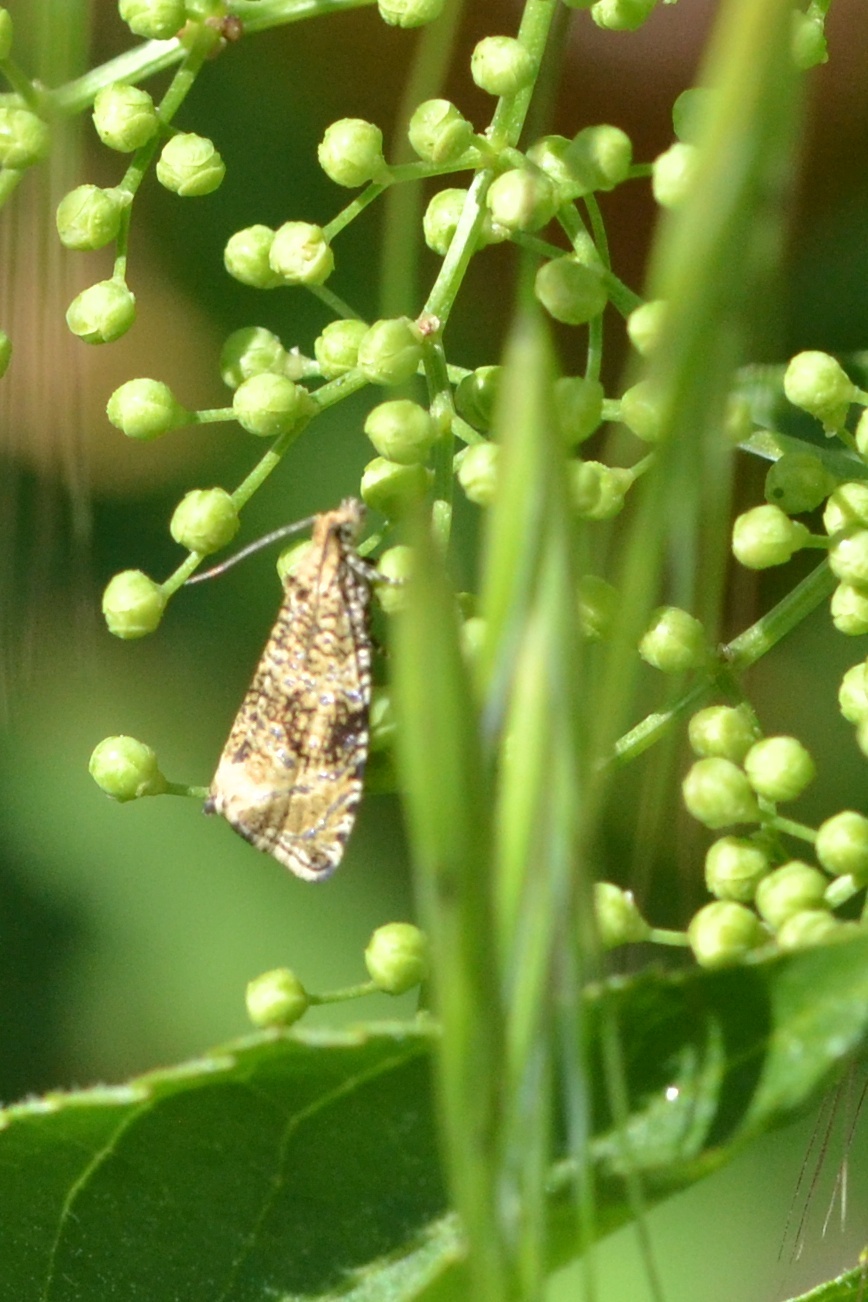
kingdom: Animalia
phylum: Arthropoda
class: Insecta
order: Lepidoptera
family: Tortricidae
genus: Syricoris
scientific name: Syricoris lacunana
